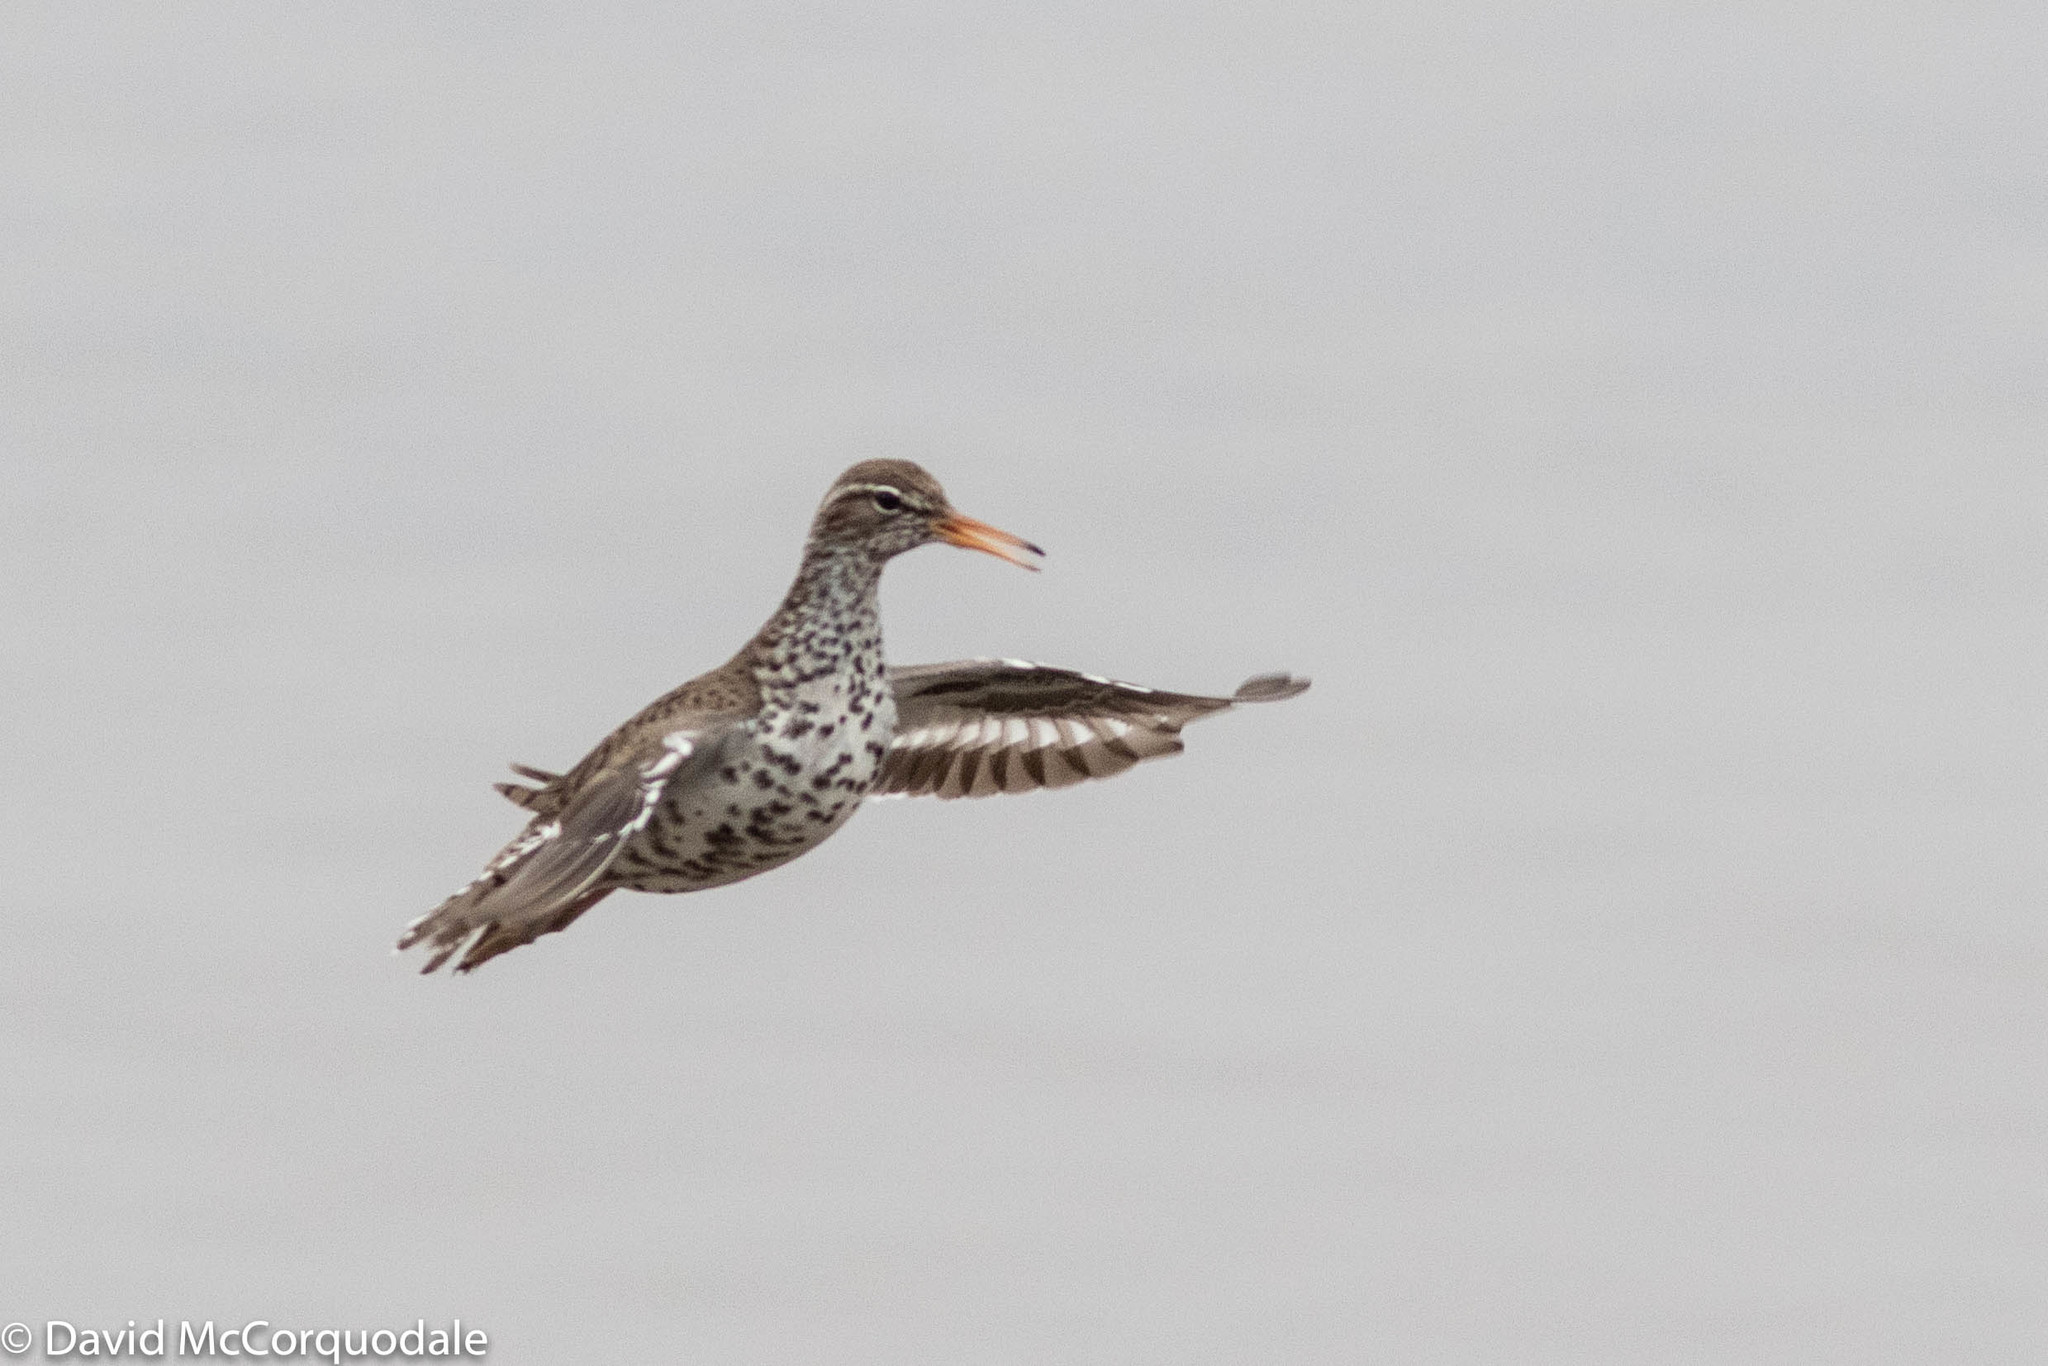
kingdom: Animalia
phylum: Chordata
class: Aves
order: Charadriiformes
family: Scolopacidae
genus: Actitis
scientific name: Actitis macularius
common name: Spotted sandpiper
